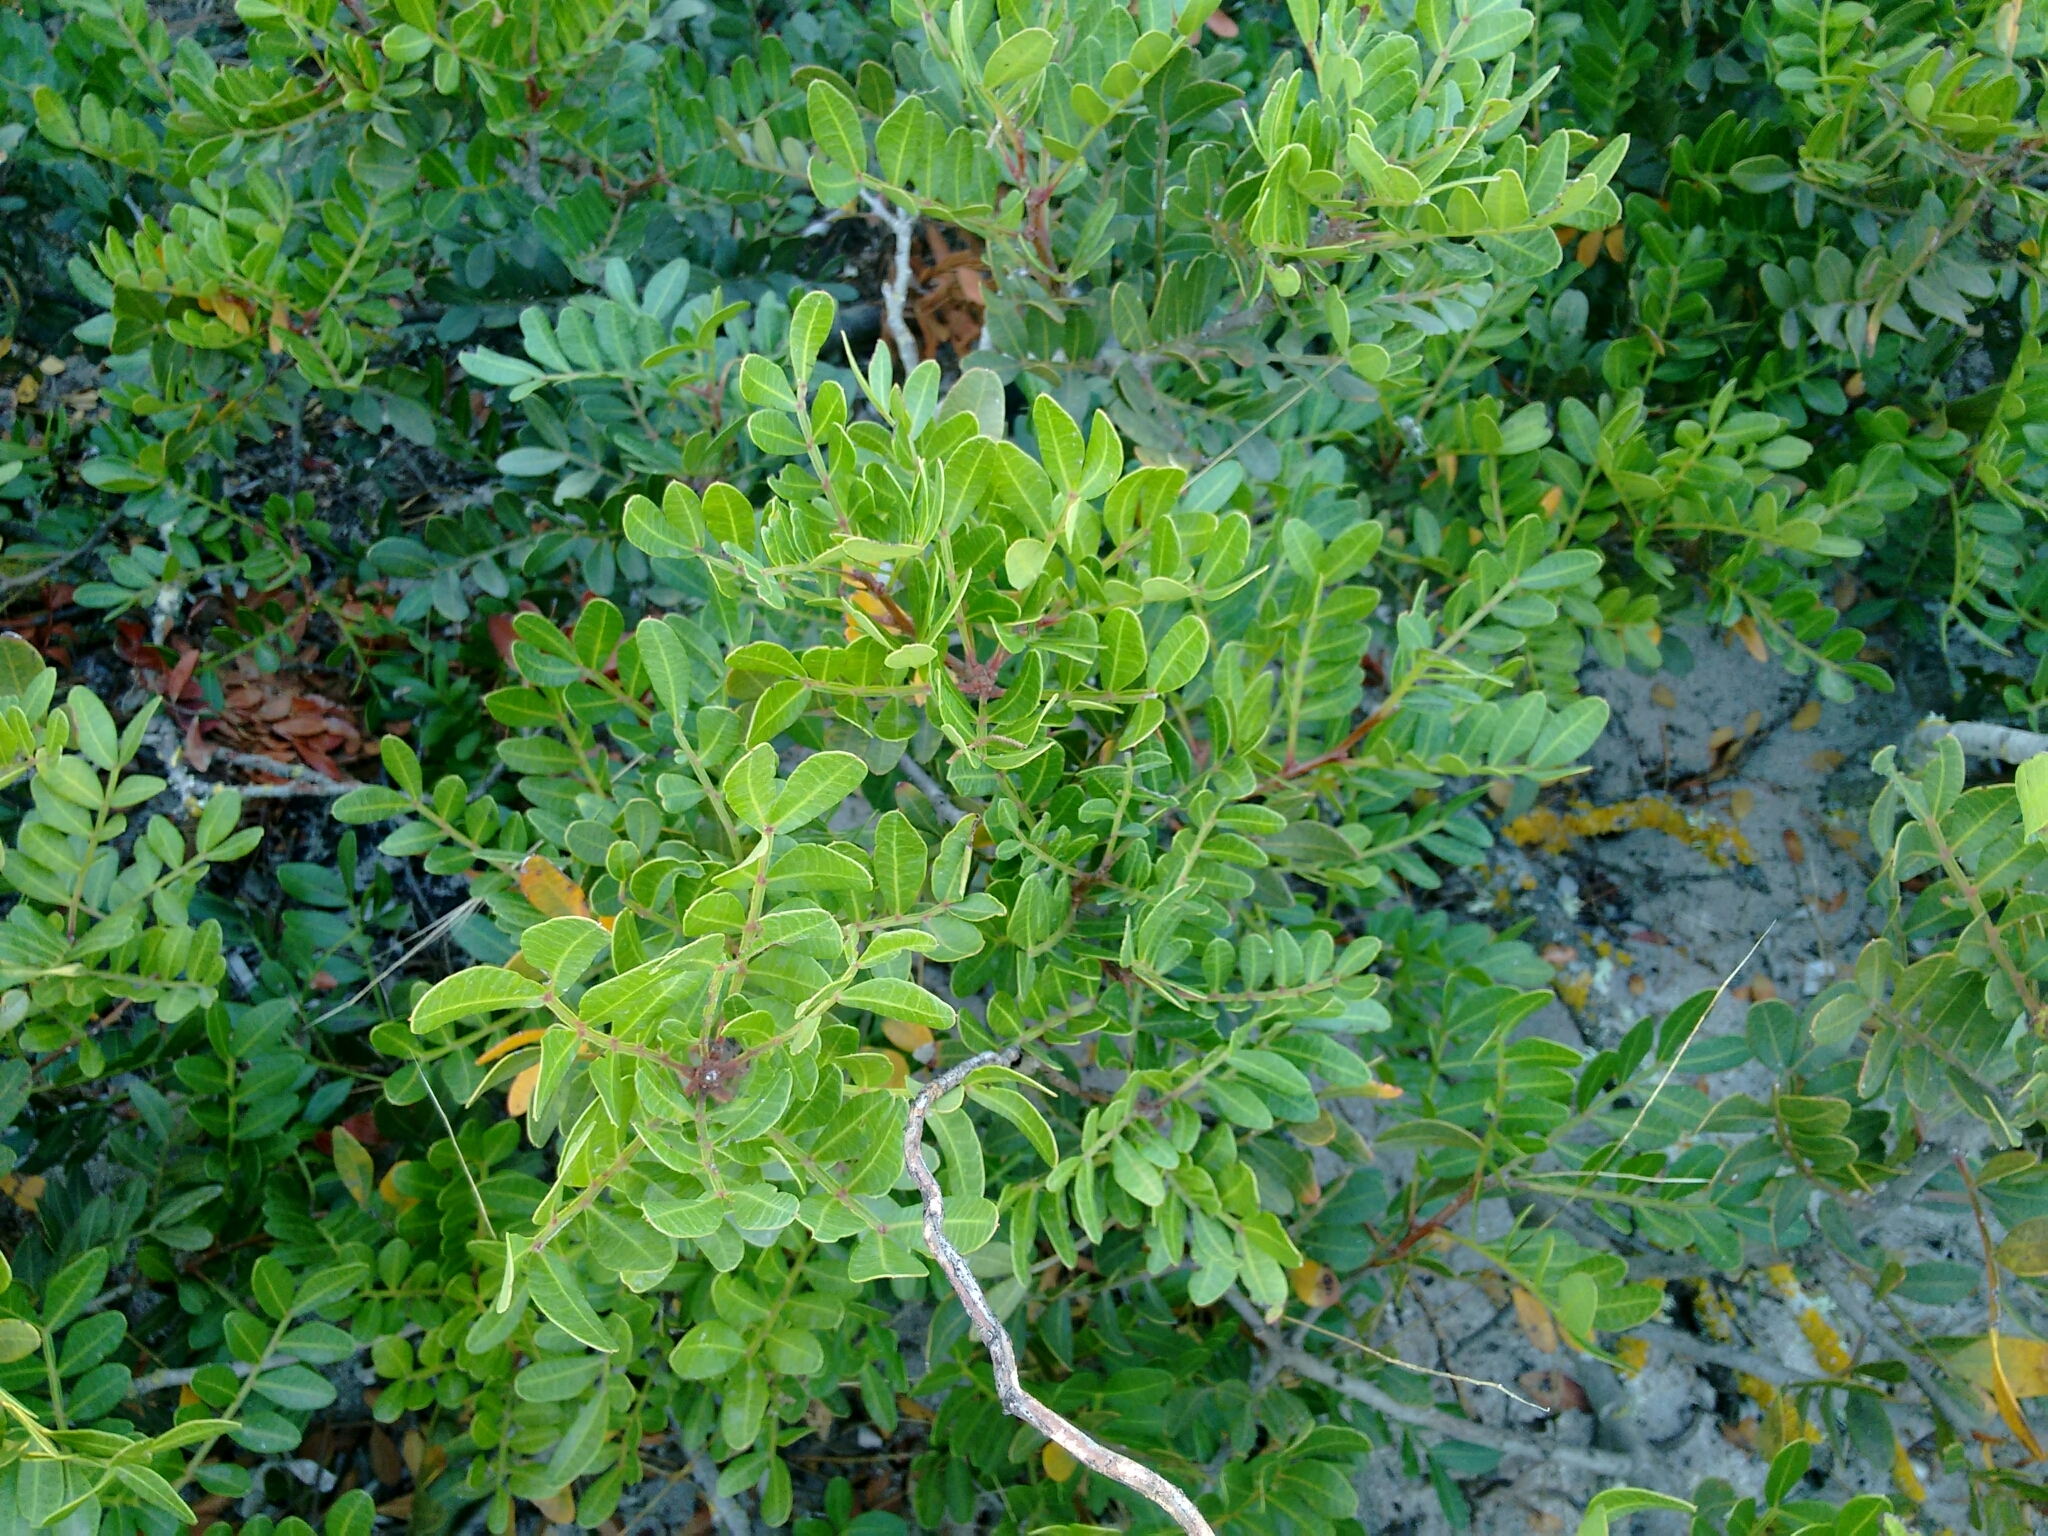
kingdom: Plantae
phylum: Tracheophyta
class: Magnoliopsida
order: Sapindales
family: Anacardiaceae
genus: Pistacia
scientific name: Pistacia lentiscus
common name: Lentisk
